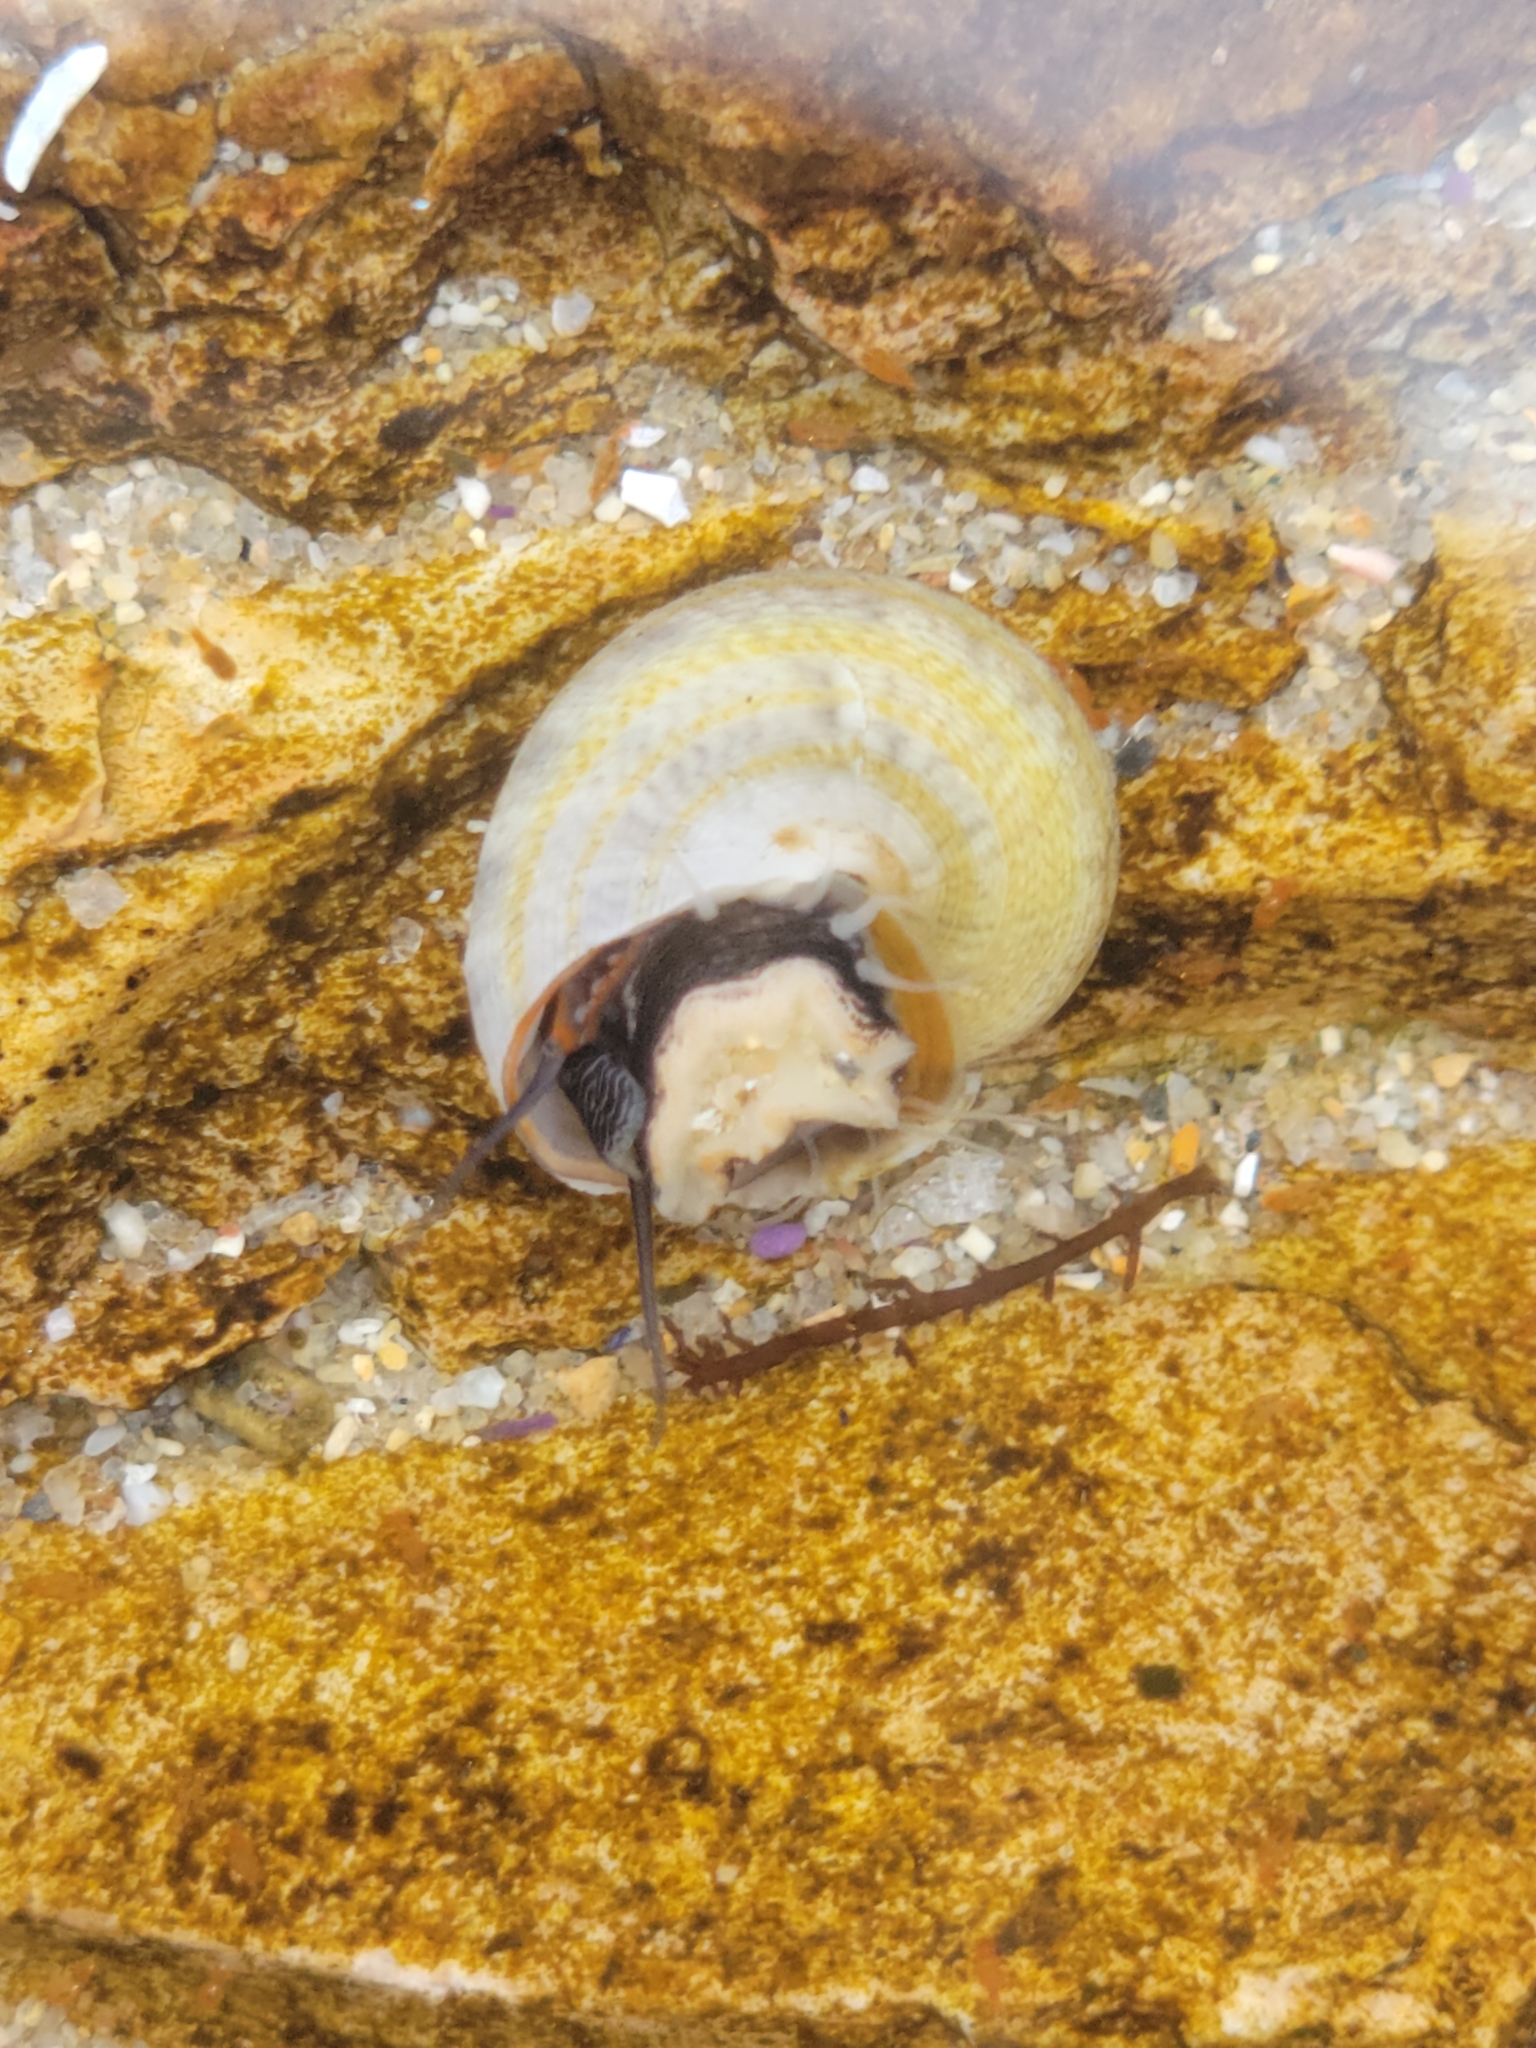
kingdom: Animalia
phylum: Mollusca
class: Gastropoda
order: Trochida
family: Tegulidae
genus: Tegula
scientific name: Tegula aureotincta
